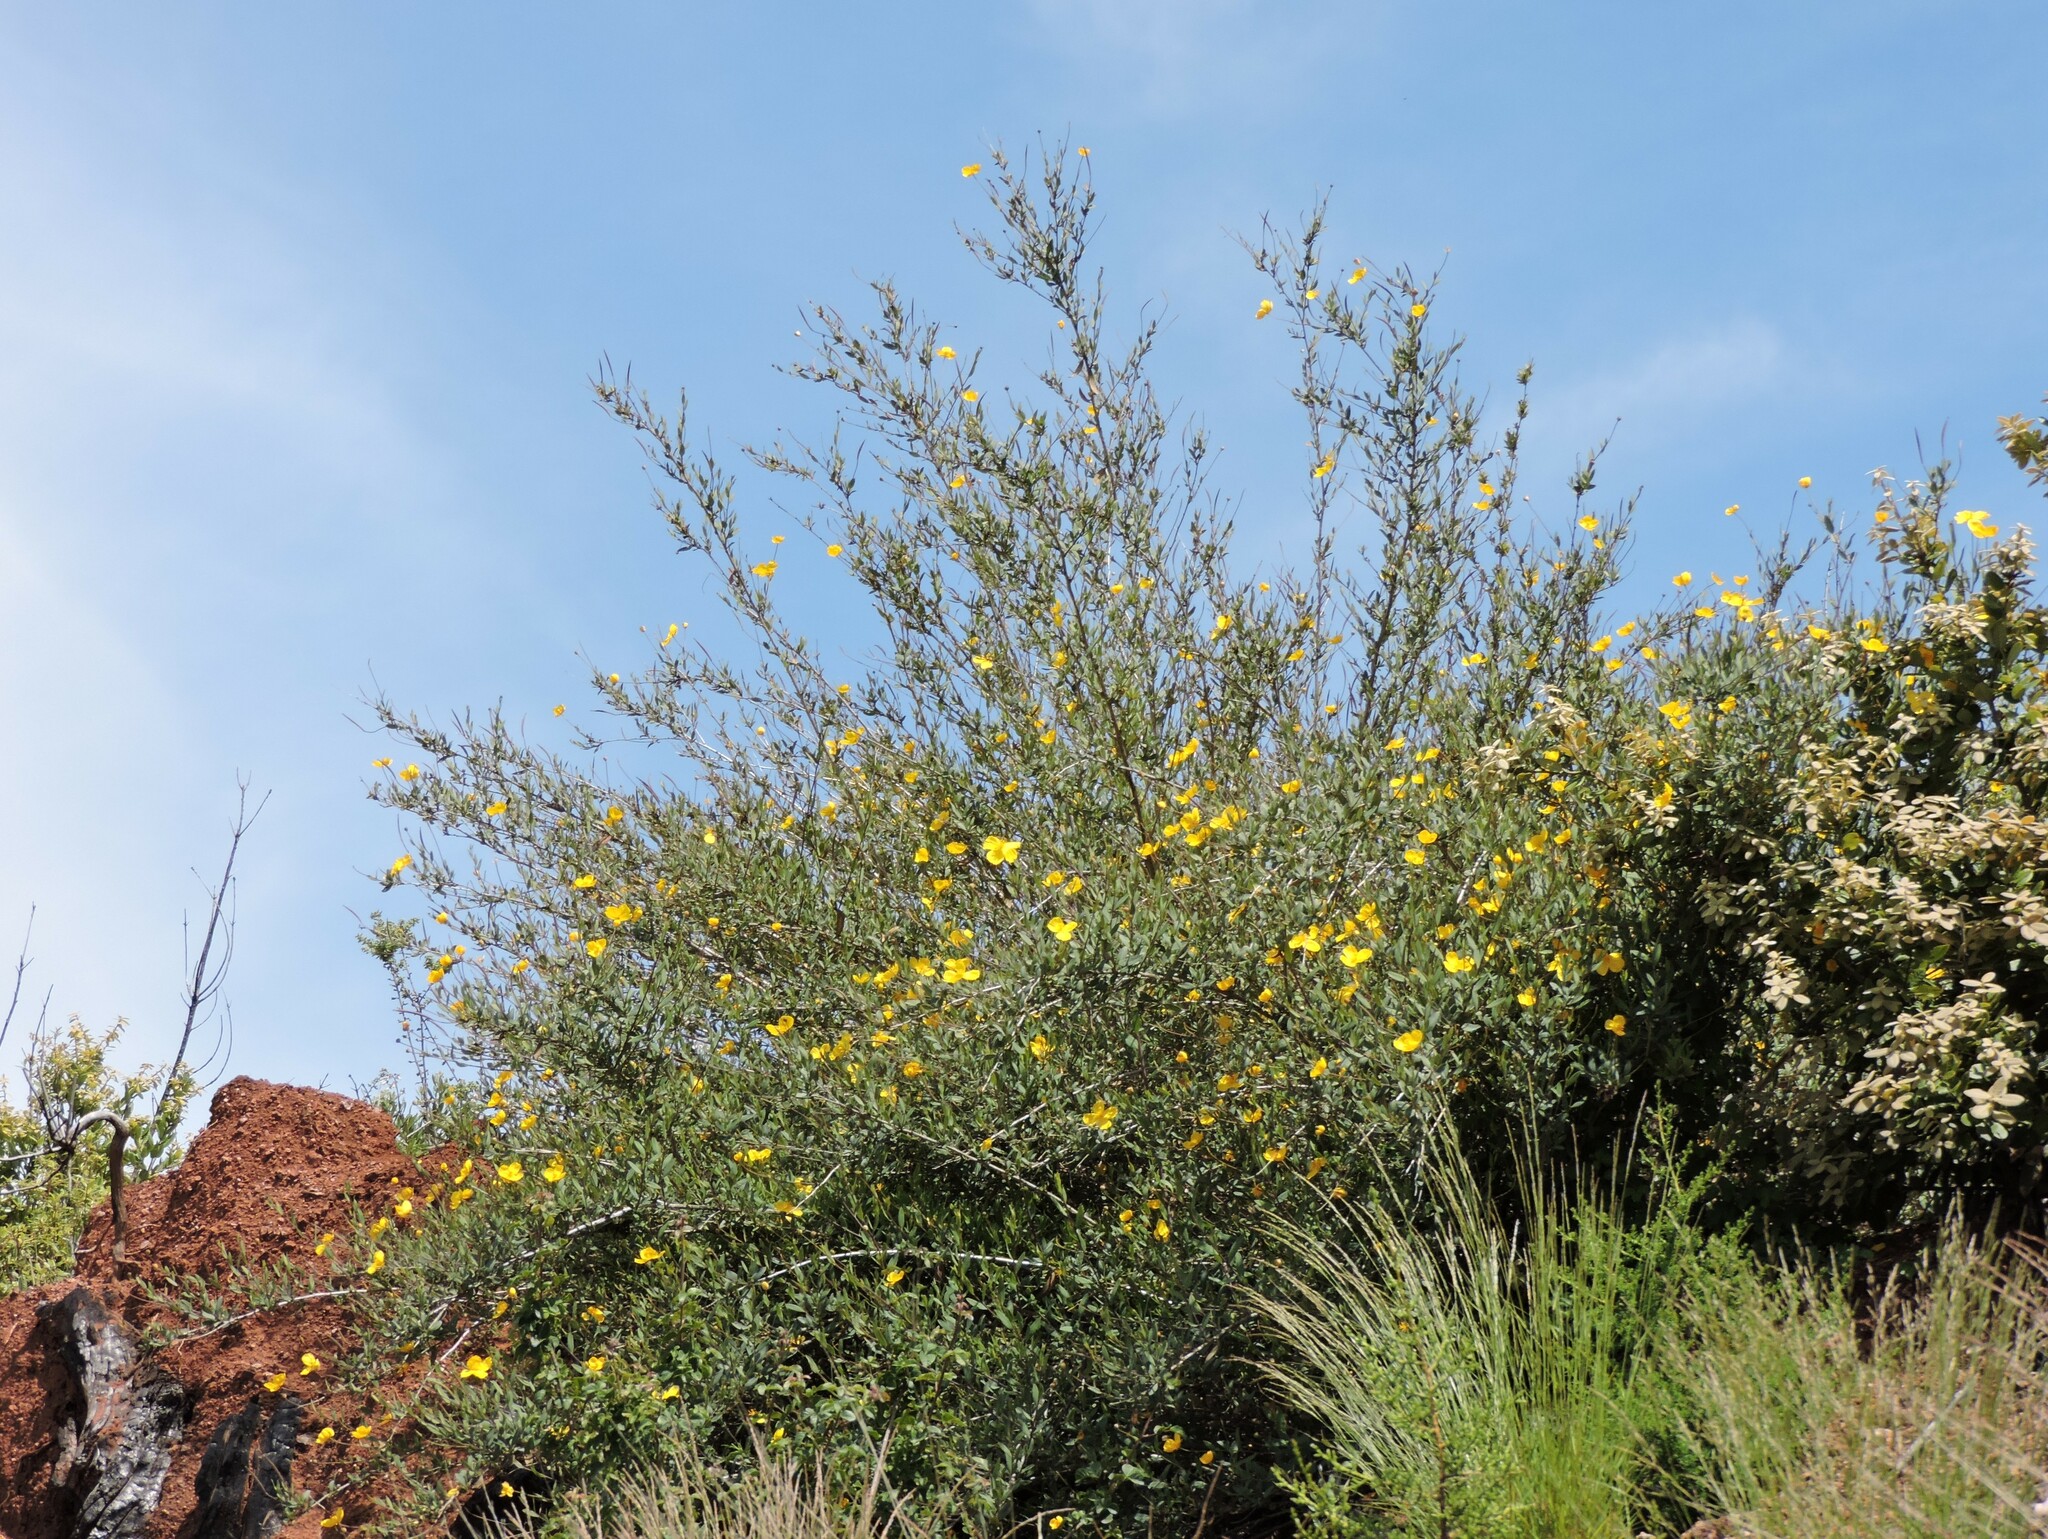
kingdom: Plantae
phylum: Tracheophyta
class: Magnoliopsida
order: Ranunculales
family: Papaveraceae
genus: Dendromecon
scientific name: Dendromecon rigida
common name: Tree poppy
